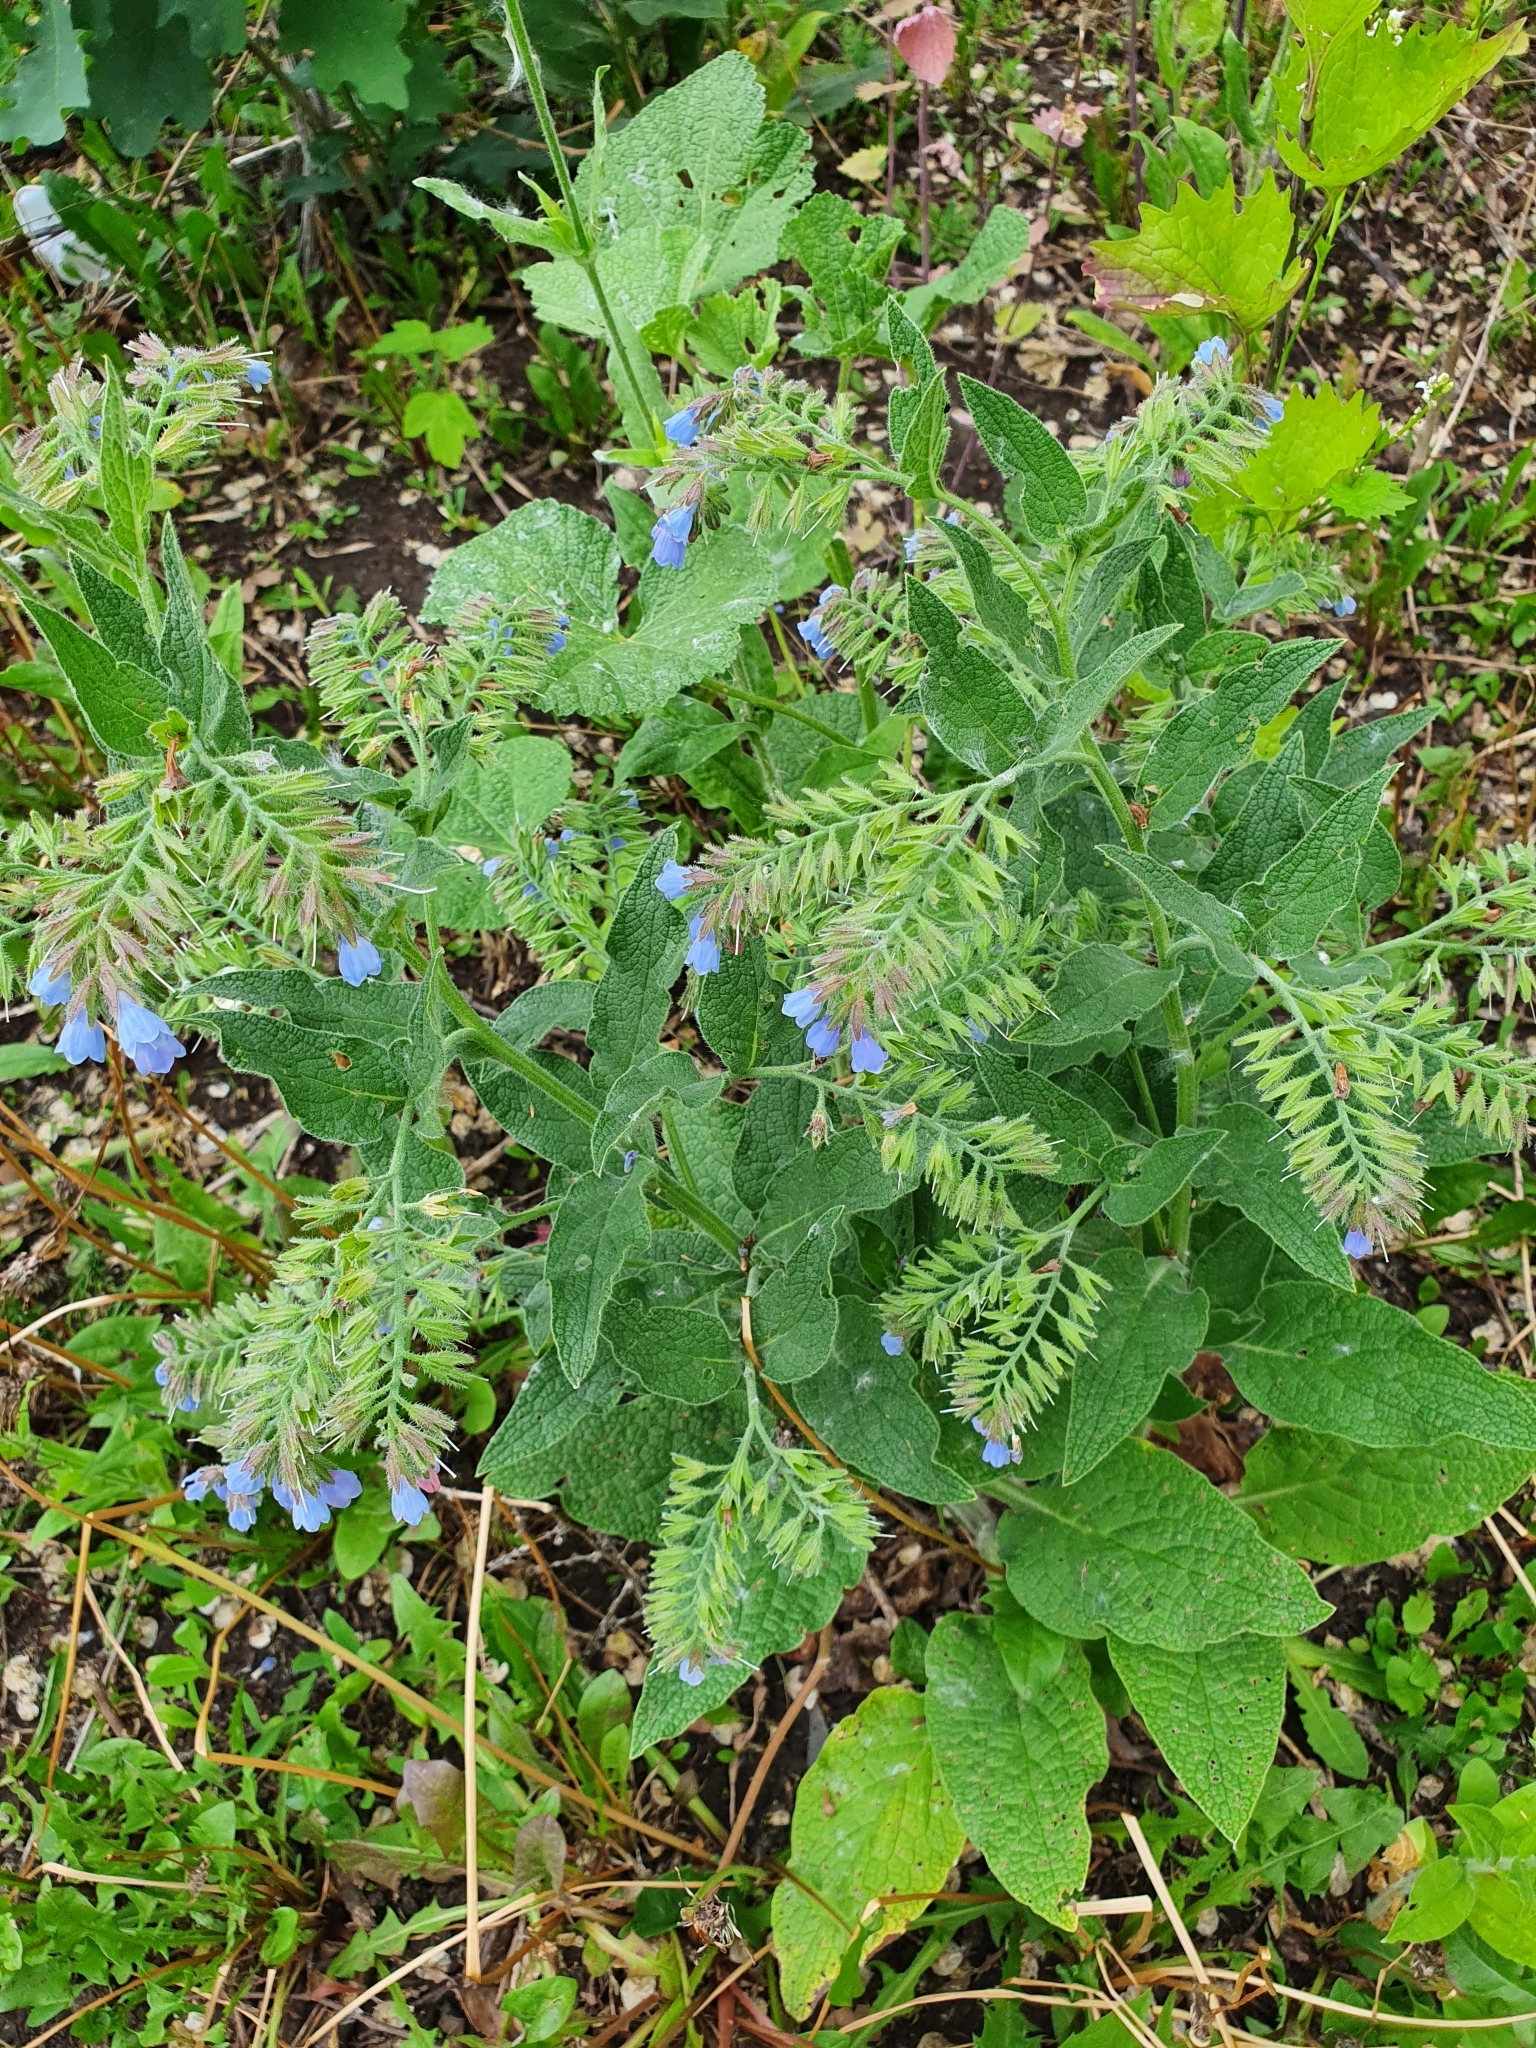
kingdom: Plantae
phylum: Tracheophyta
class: Magnoliopsida
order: Boraginales
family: Boraginaceae
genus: Symphytum
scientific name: Symphytum caucasicum
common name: Caucasian comfrey
